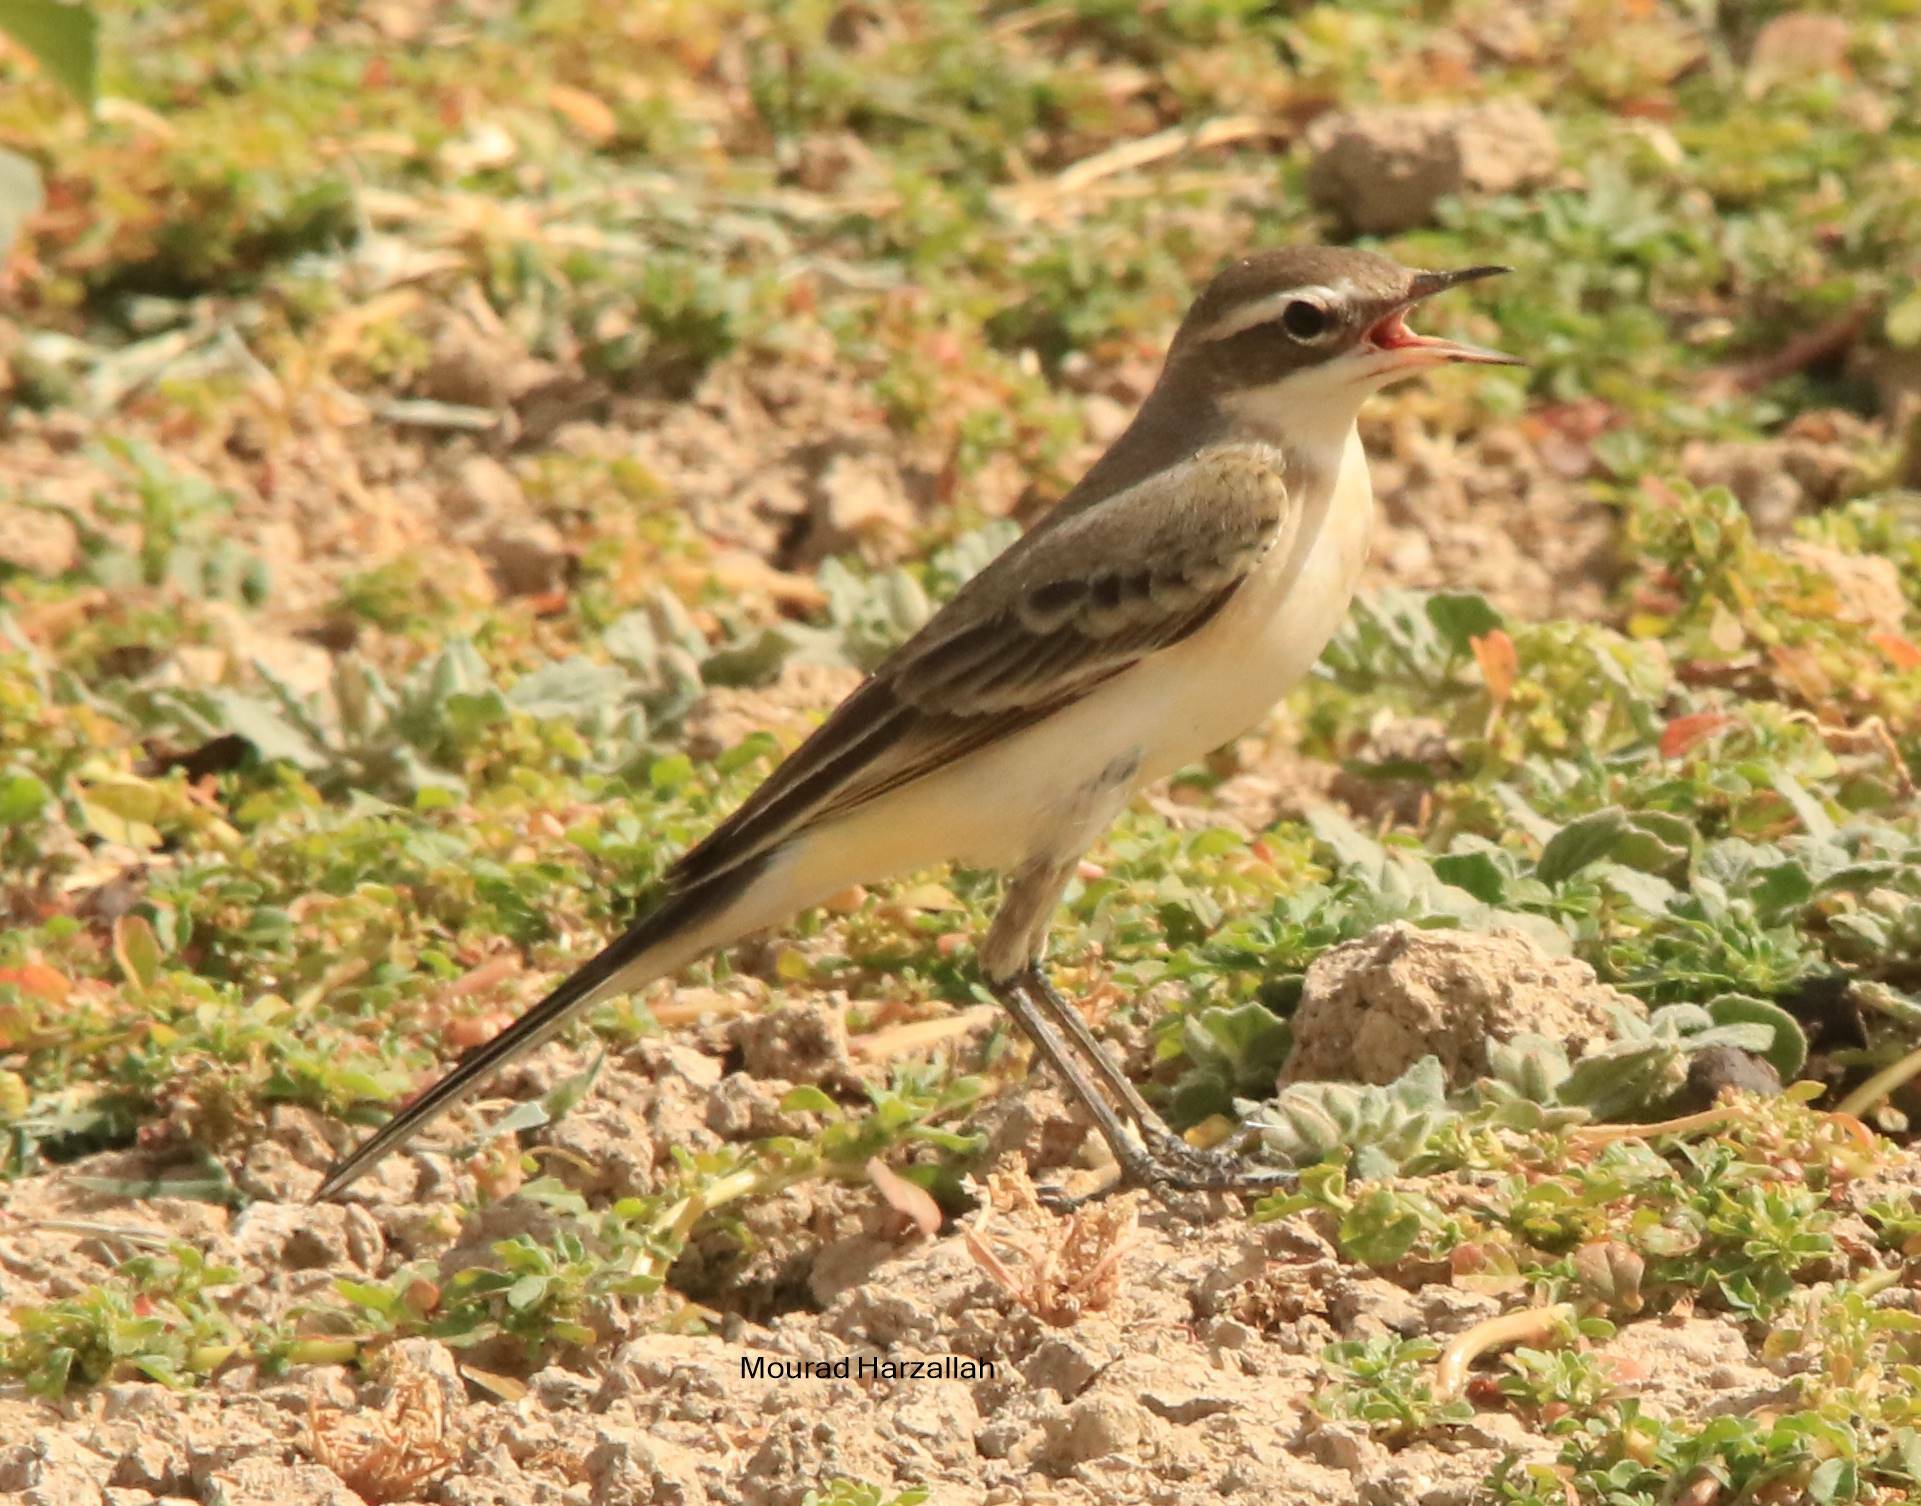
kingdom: Animalia
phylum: Chordata
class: Aves
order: Passeriformes
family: Motacillidae
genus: Motacilla
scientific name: Motacilla flava
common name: Western yellow wagtail
